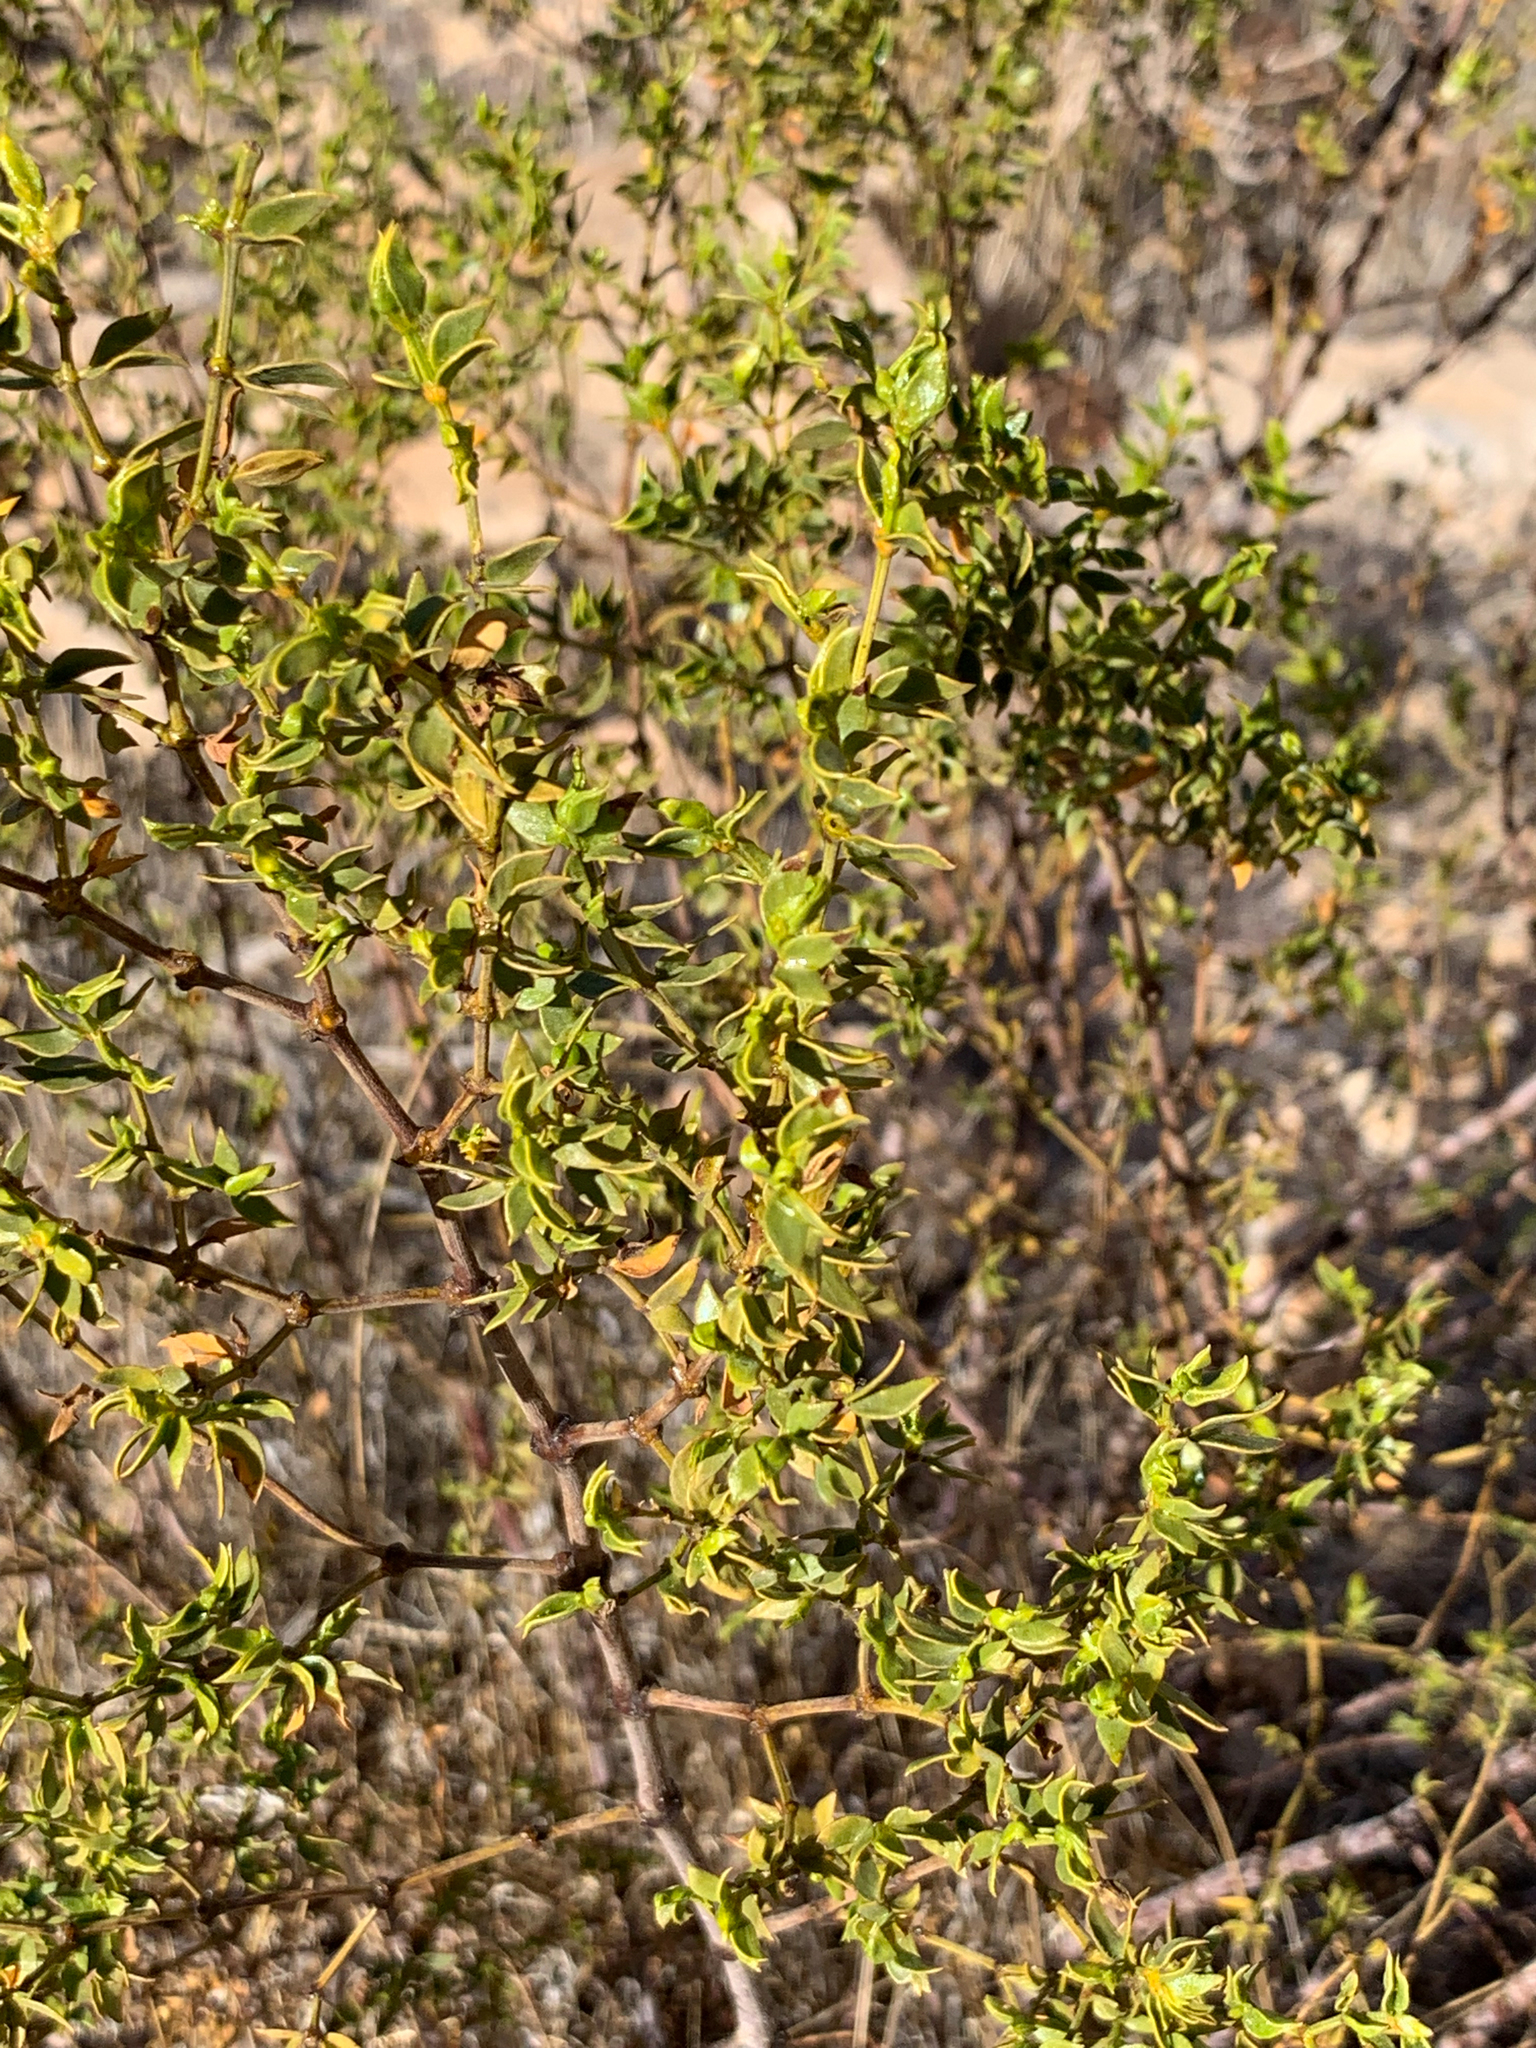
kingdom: Plantae
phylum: Tracheophyta
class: Magnoliopsida
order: Zygophyllales
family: Zygophyllaceae
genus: Larrea
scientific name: Larrea tridentata
